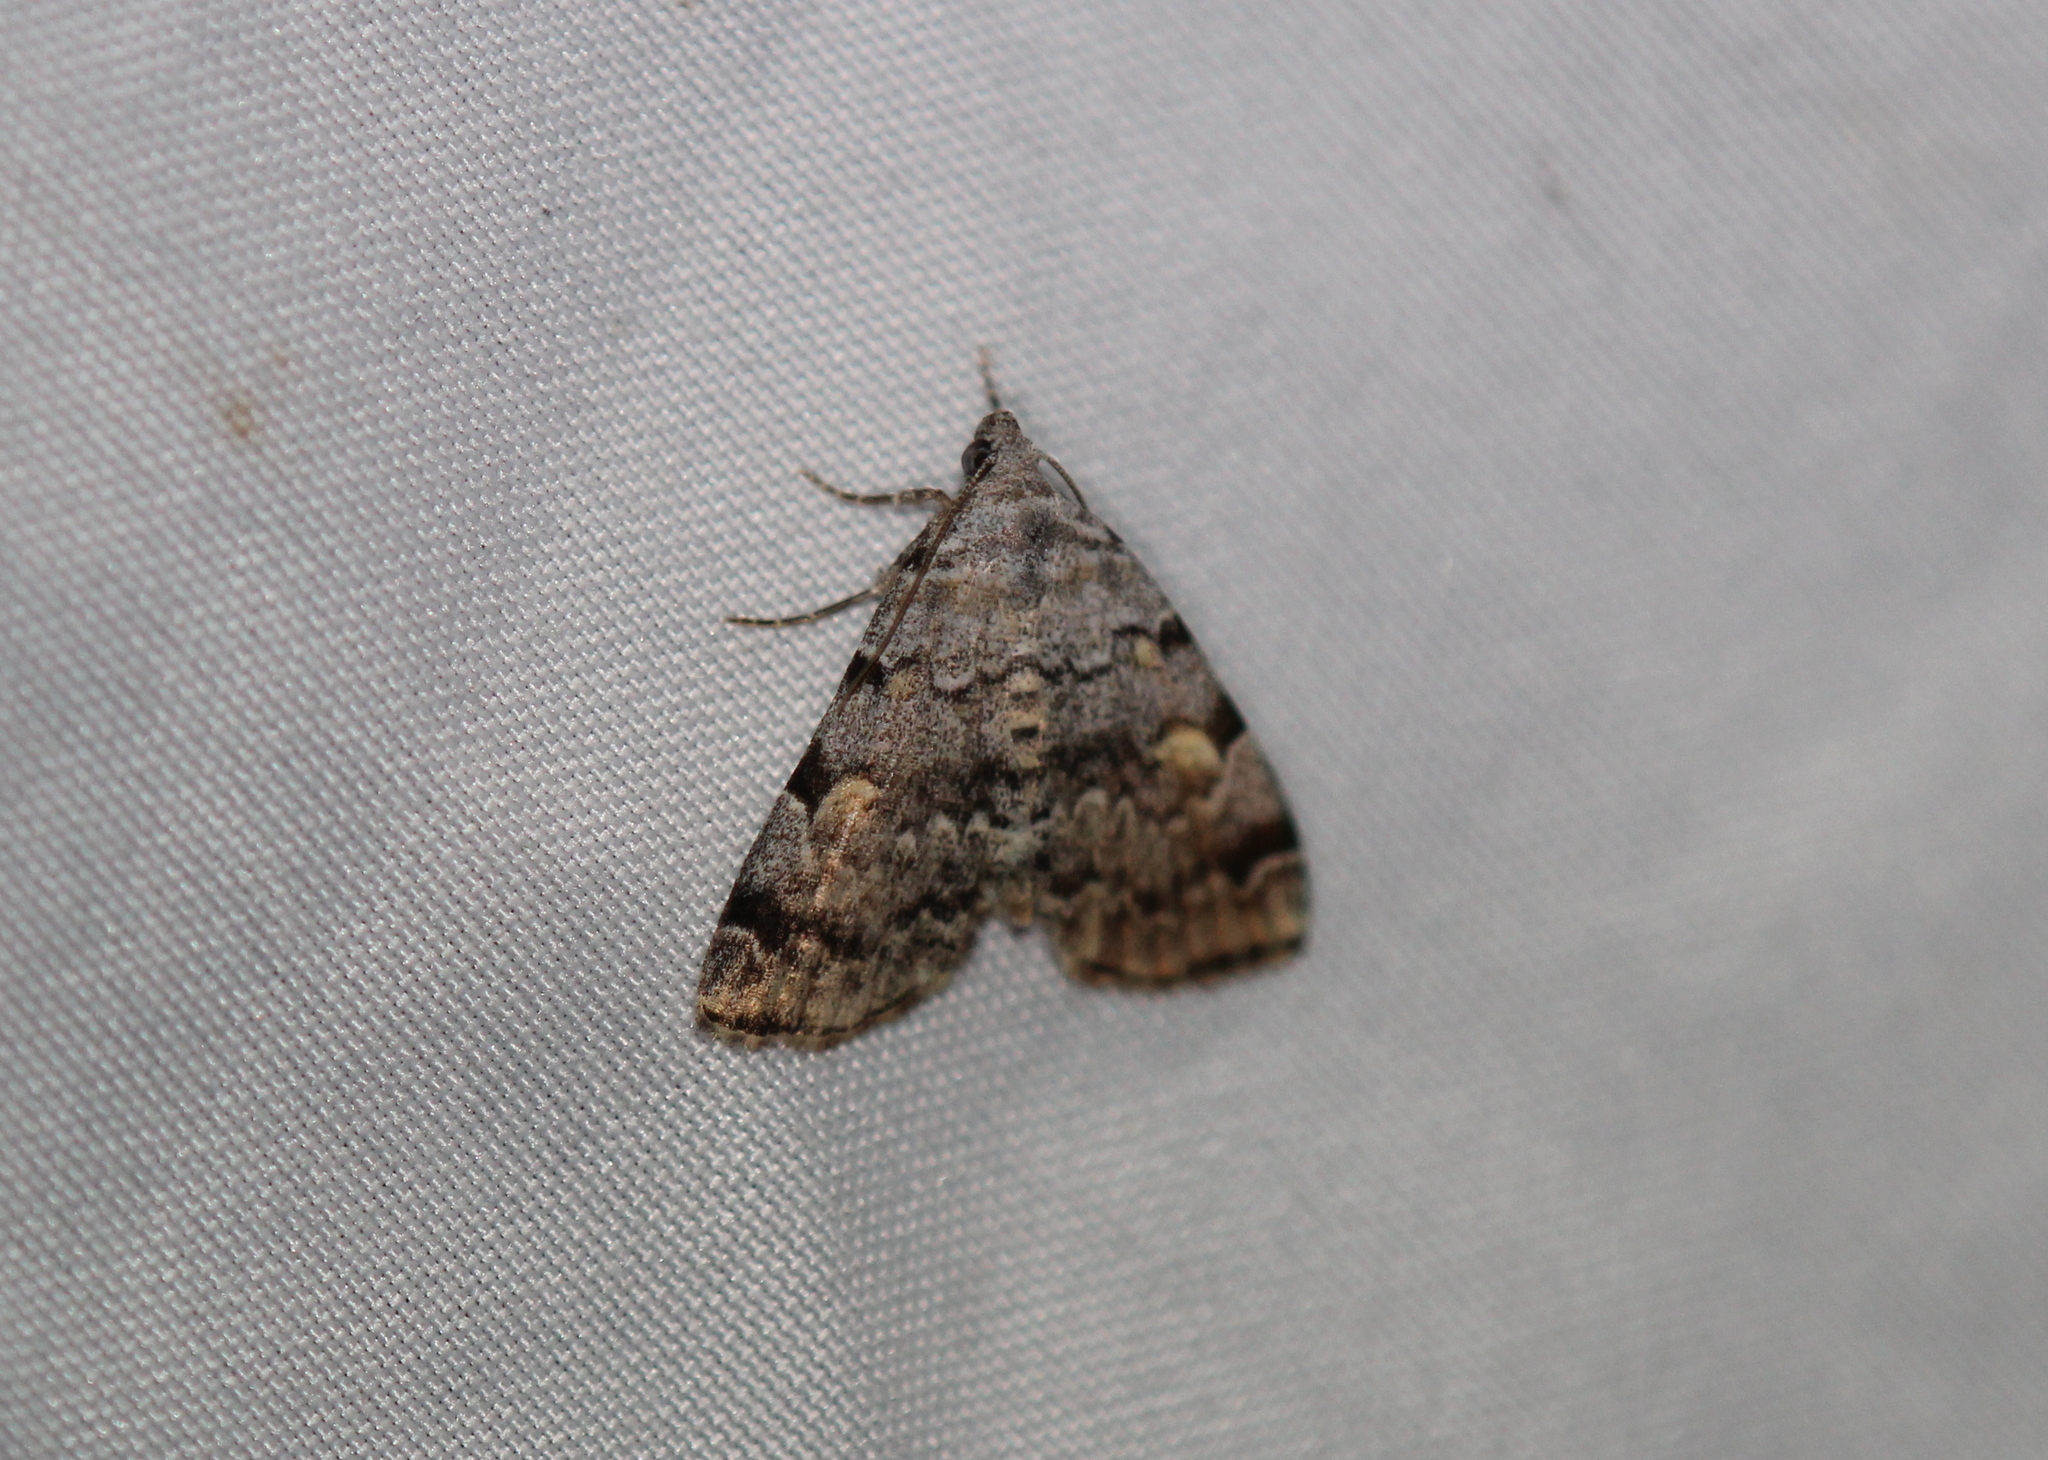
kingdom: Animalia
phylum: Arthropoda
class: Insecta
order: Lepidoptera
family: Erebidae
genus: Idia
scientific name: Idia americalis
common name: American idia moth
